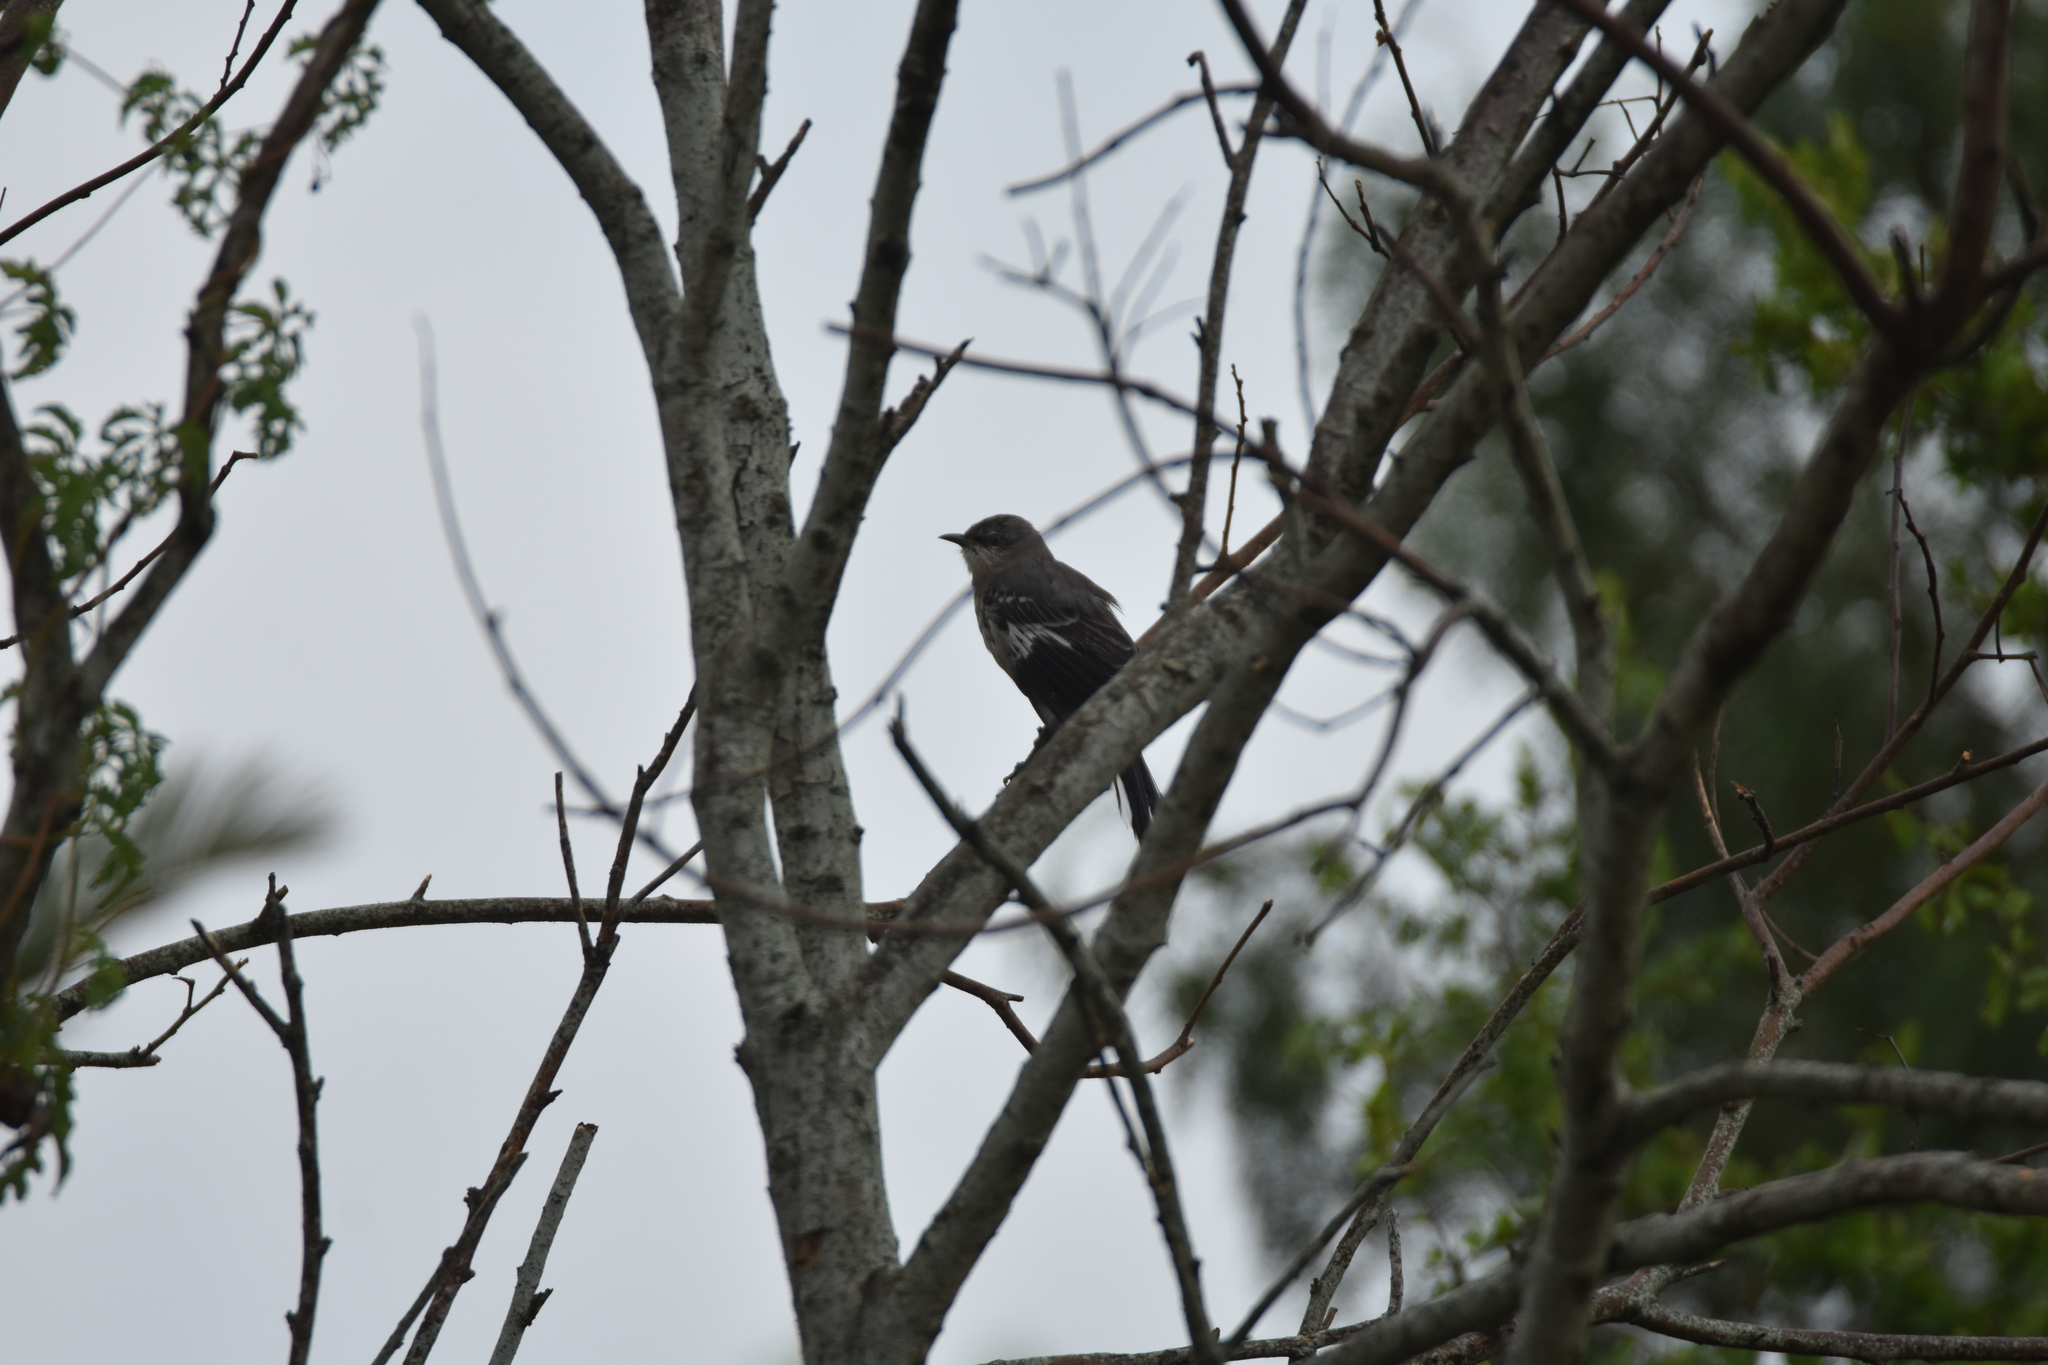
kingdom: Animalia
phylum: Chordata
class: Aves
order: Passeriformes
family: Mimidae
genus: Mimus
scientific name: Mimus polyglottos
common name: Northern mockingbird
